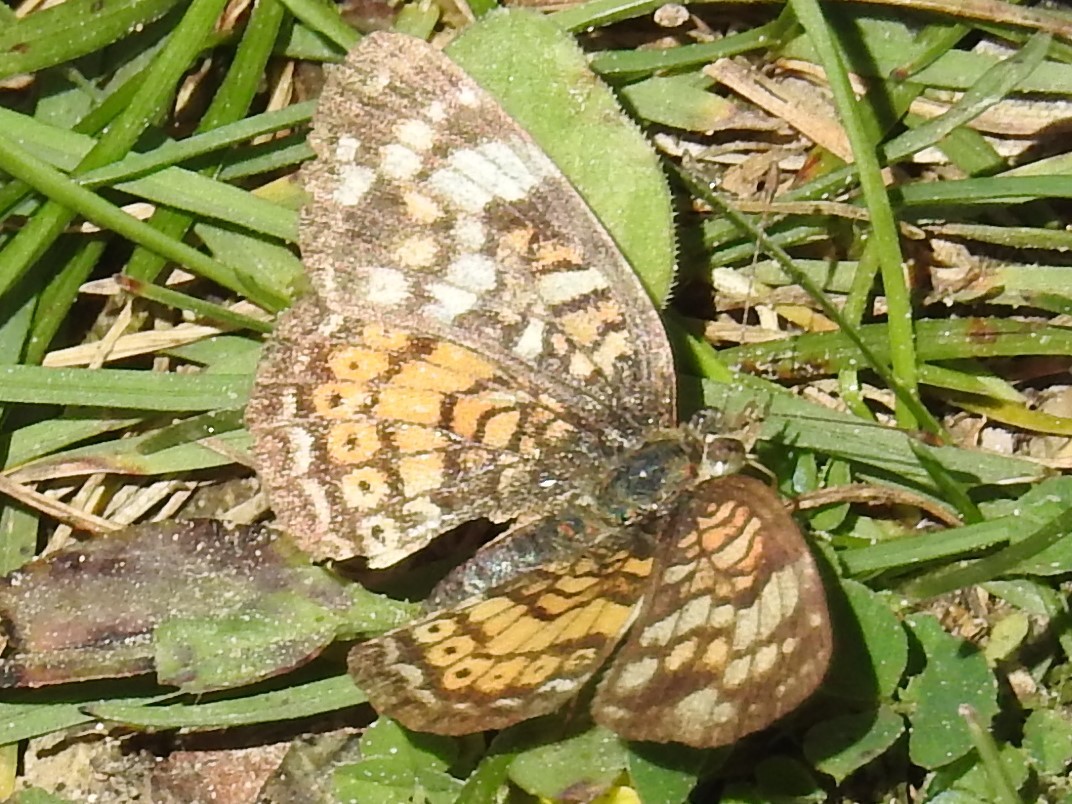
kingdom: Animalia
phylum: Arthropoda
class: Insecta
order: Lepidoptera
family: Nymphalidae
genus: Phyciodes
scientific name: Phyciodes tharos
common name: Pearl crescent
